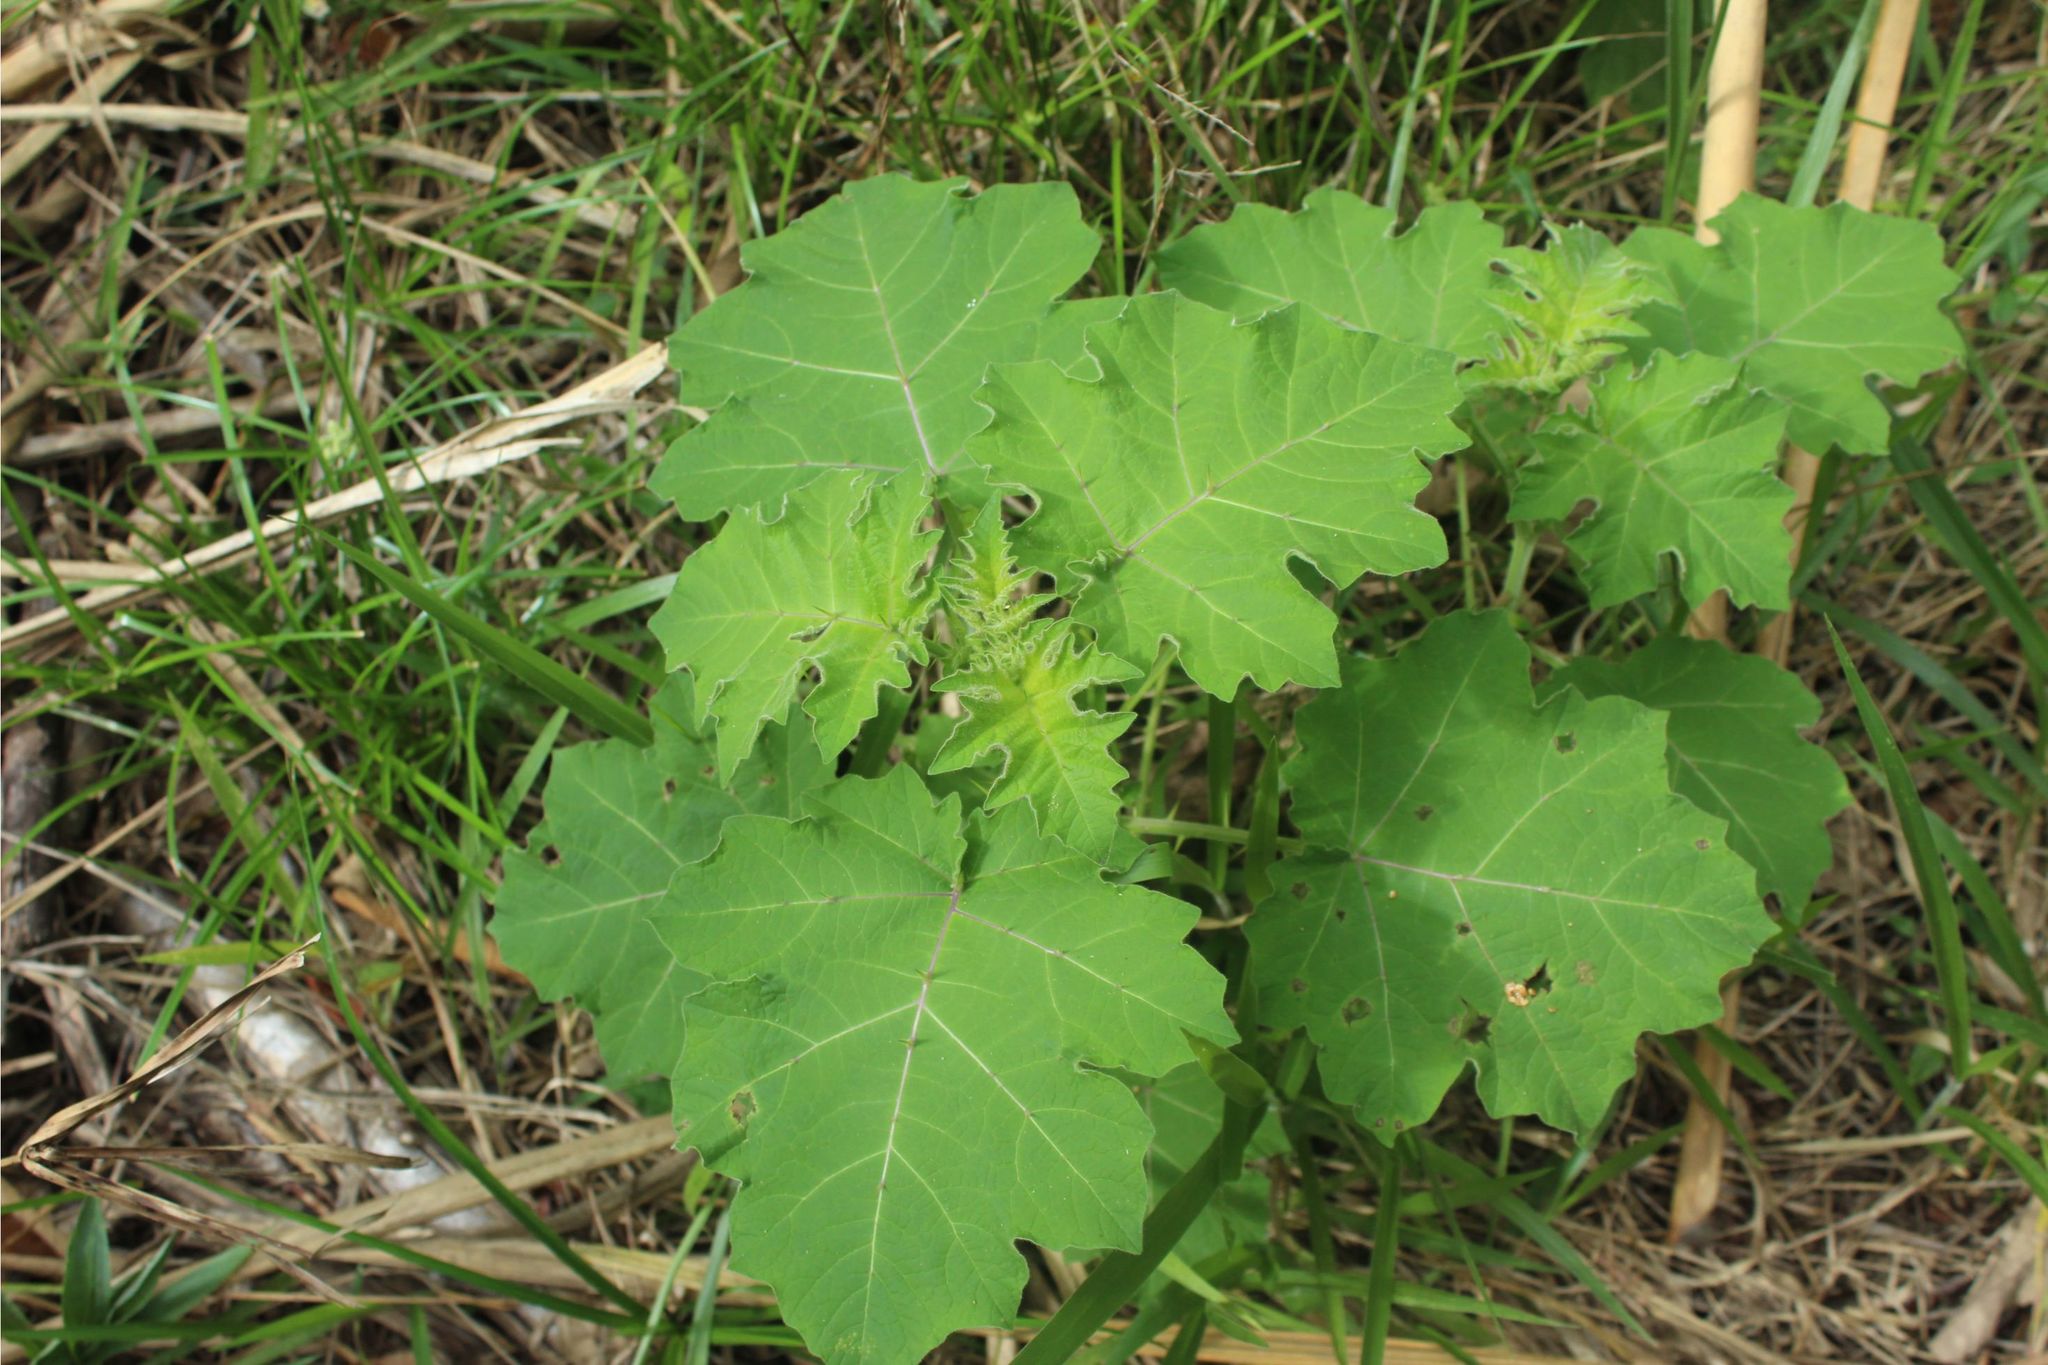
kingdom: Plantae
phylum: Tracheophyta
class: Magnoliopsida
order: Solanales
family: Solanaceae
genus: Solanum
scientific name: Solanum viarum
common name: Tropical soda apple
